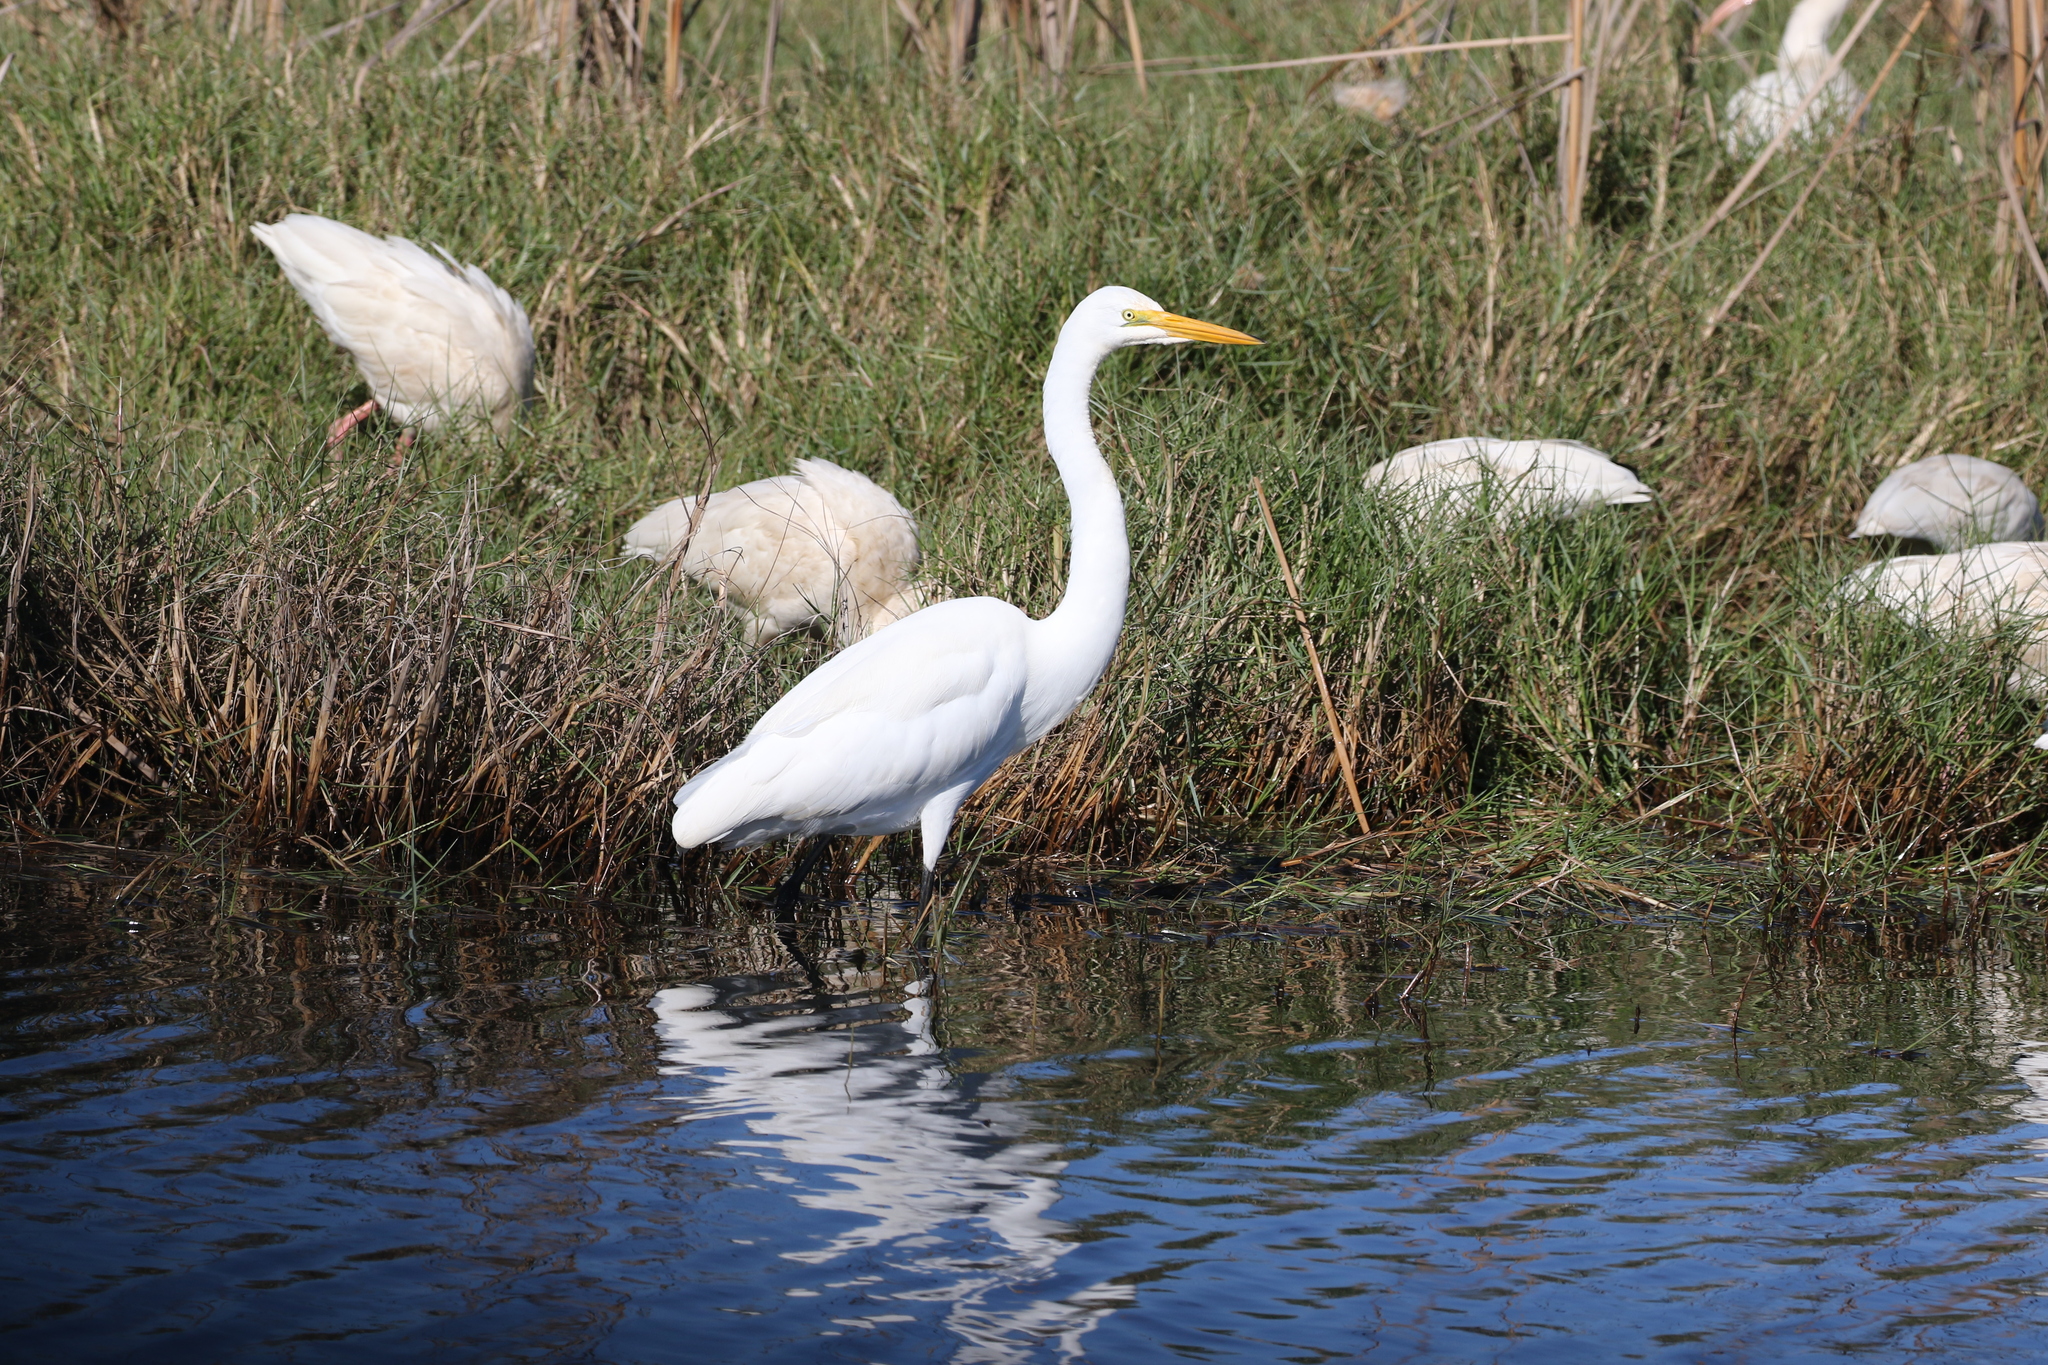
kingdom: Animalia
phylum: Chordata
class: Aves
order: Pelecaniformes
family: Ardeidae
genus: Ardea
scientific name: Ardea alba
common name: Great egret
